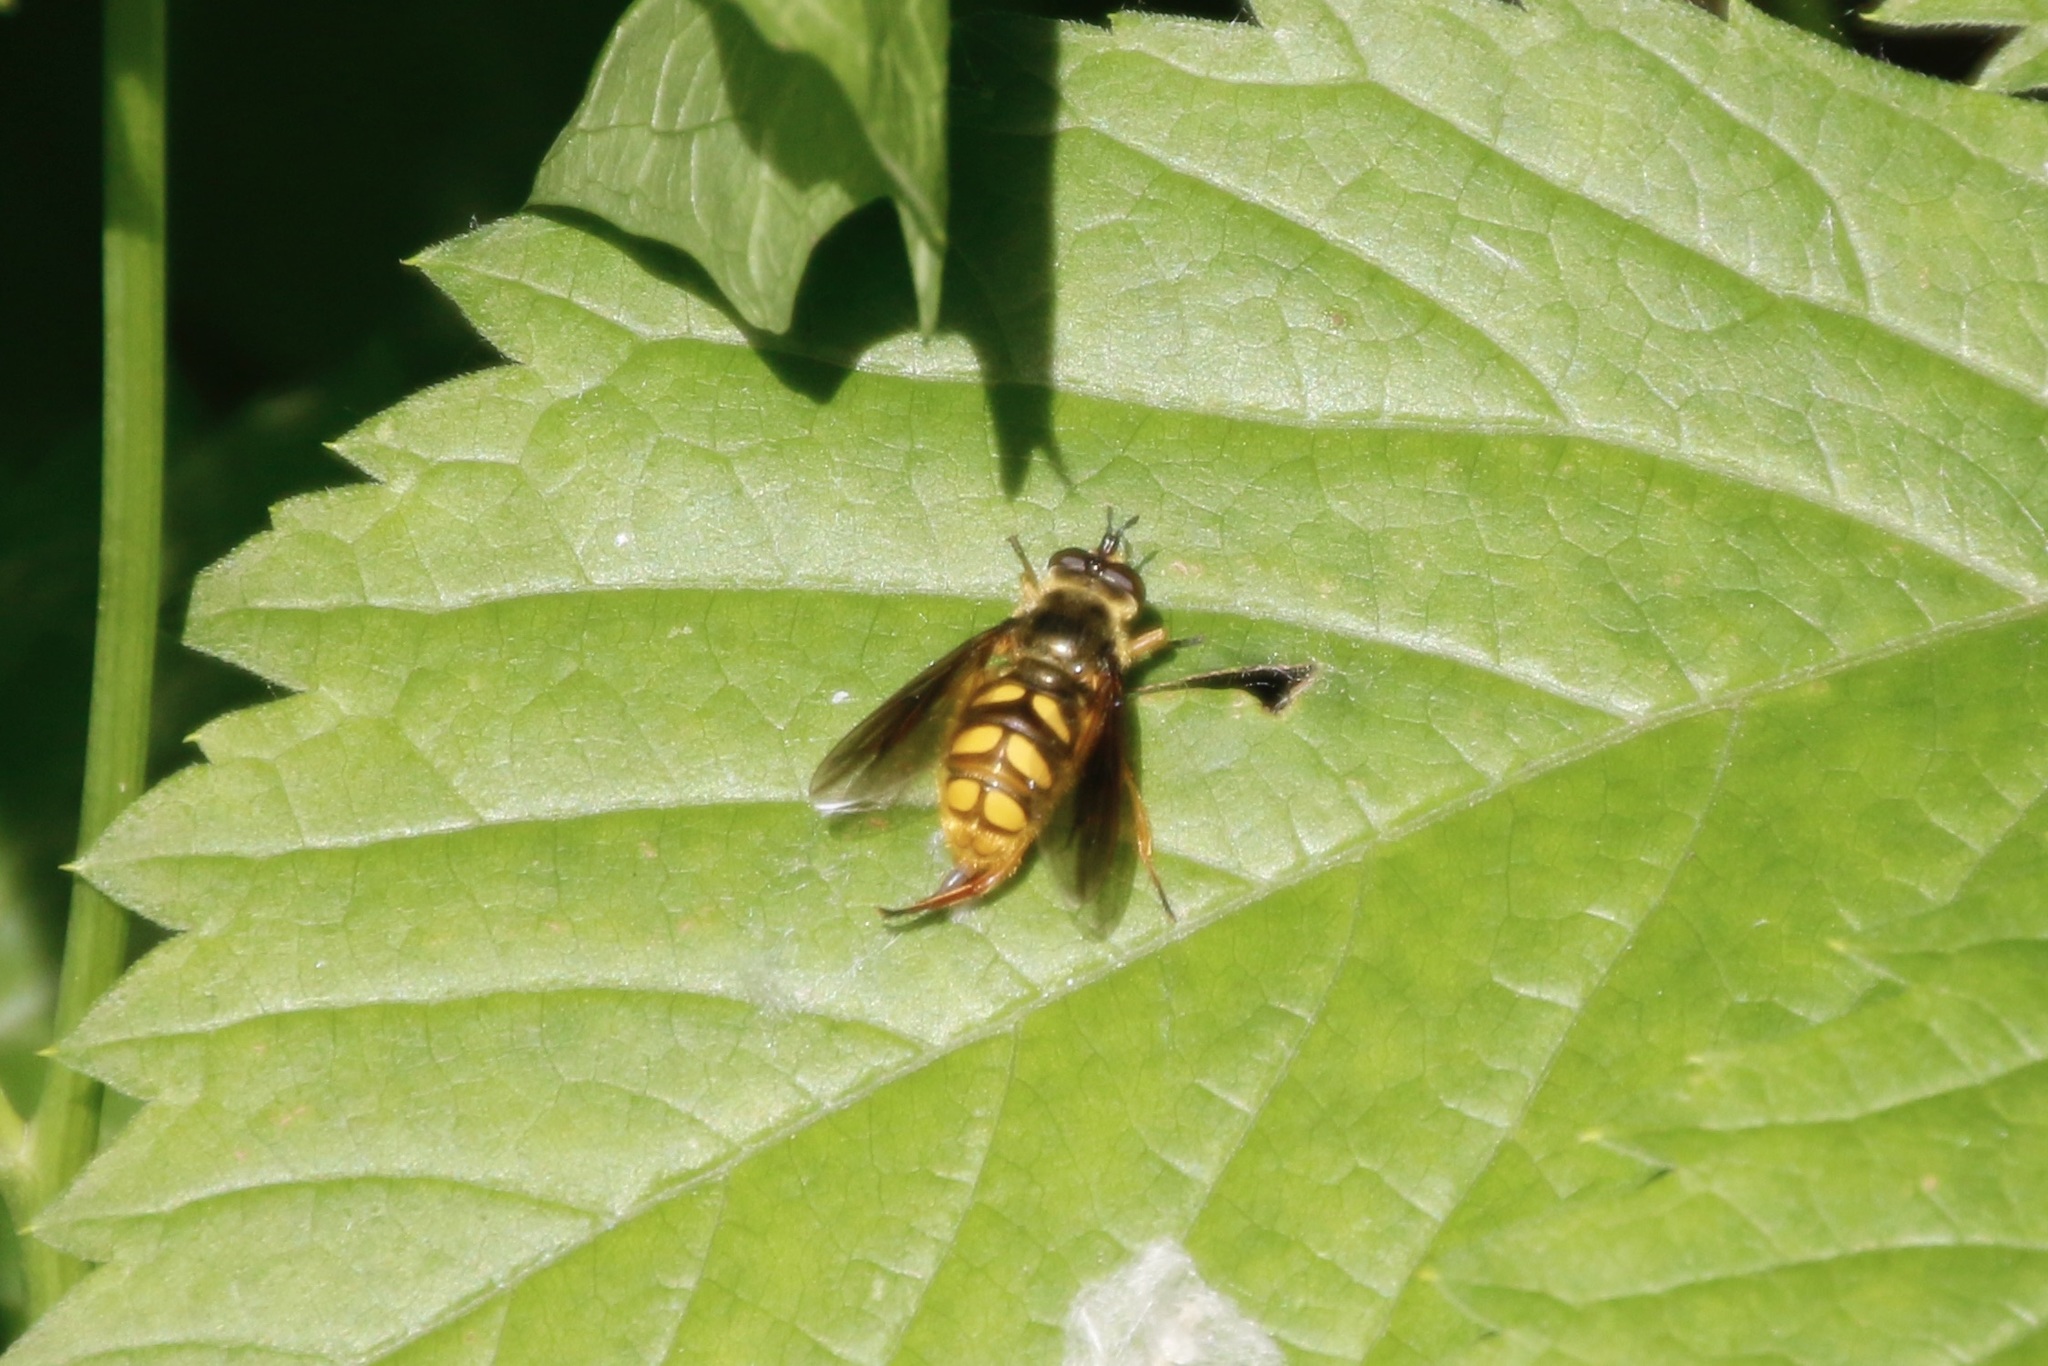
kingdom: Animalia
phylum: Arthropoda
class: Insecta
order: Diptera
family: Syrphidae
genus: Somula
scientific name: Somula decora
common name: Spotted wood fly
